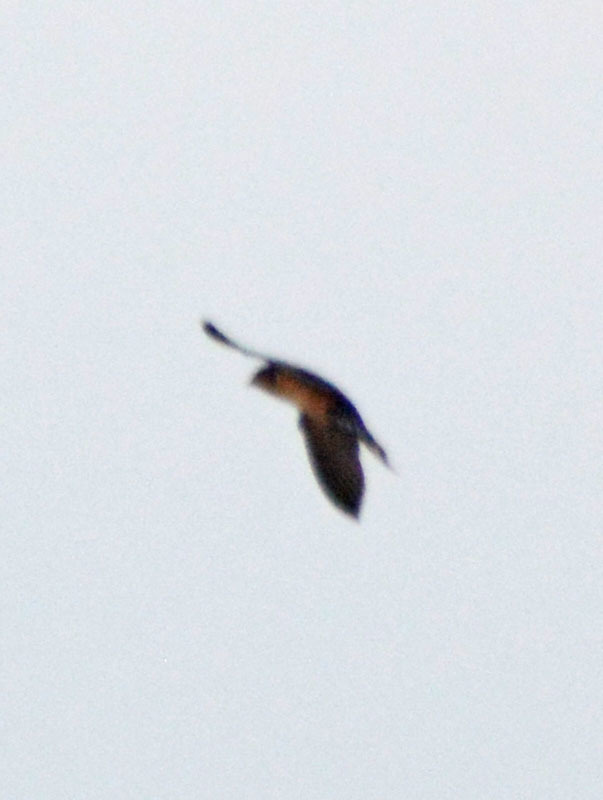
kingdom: Animalia
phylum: Chordata
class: Aves
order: Passeriformes
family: Hirundinidae
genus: Hirundo
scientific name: Hirundo rustica
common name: Barn swallow
